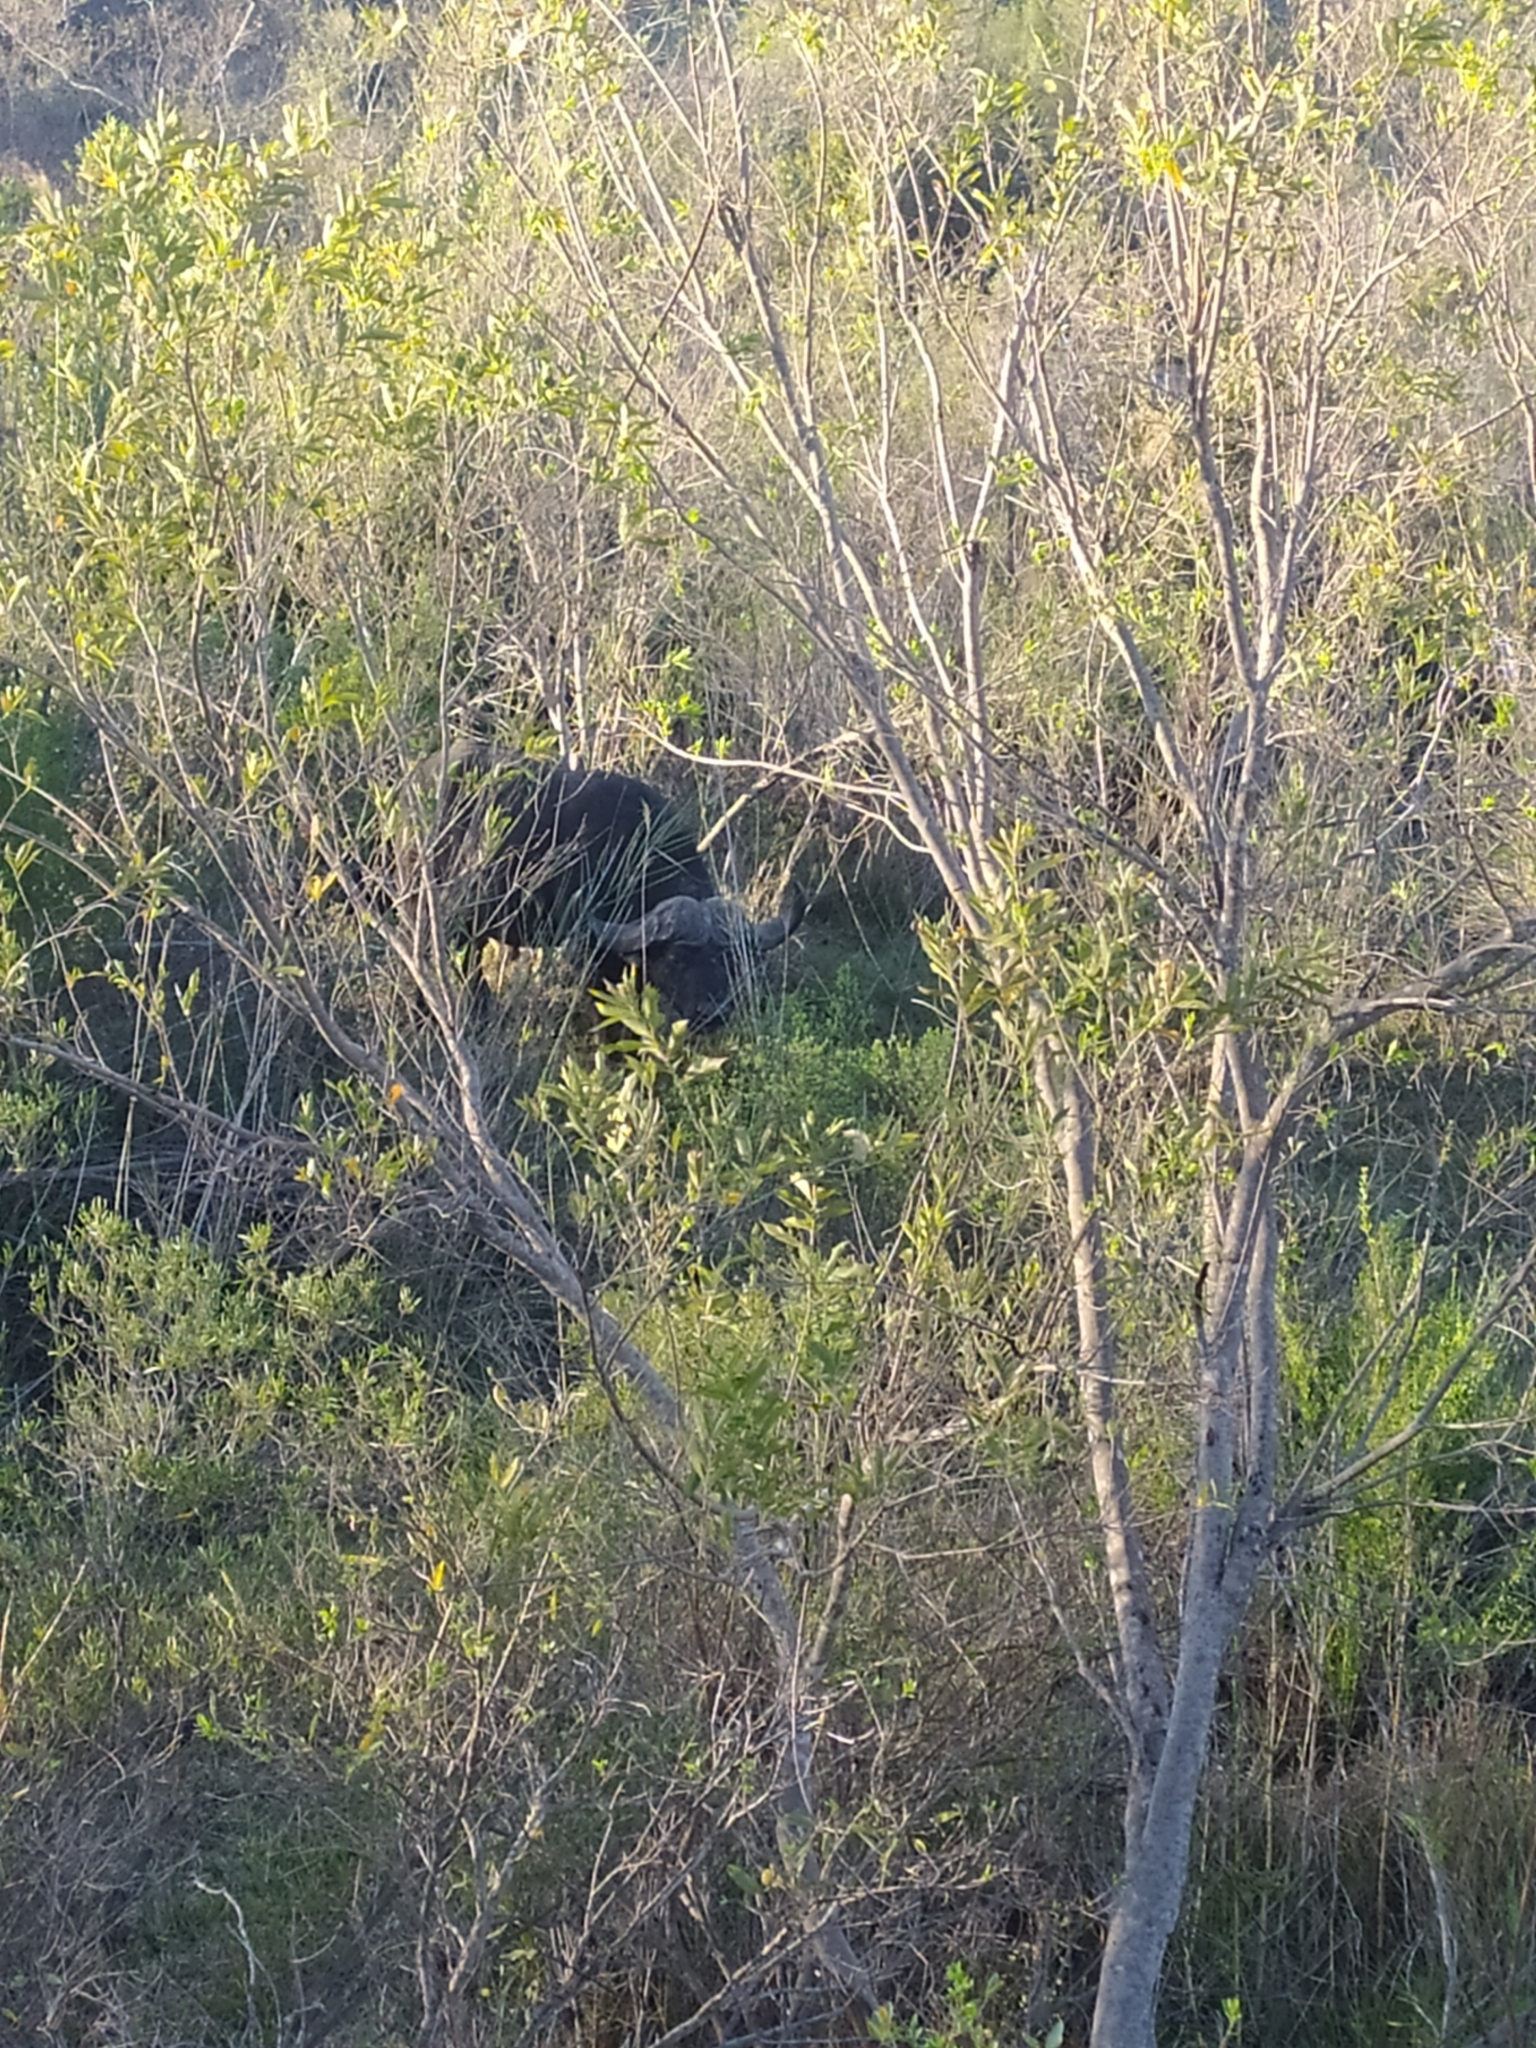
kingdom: Animalia
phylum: Chordata
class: Mammalia
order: Artiodactyla
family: Bovidae
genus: Syncerus
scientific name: Syncerus caffer
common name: African buffalo
